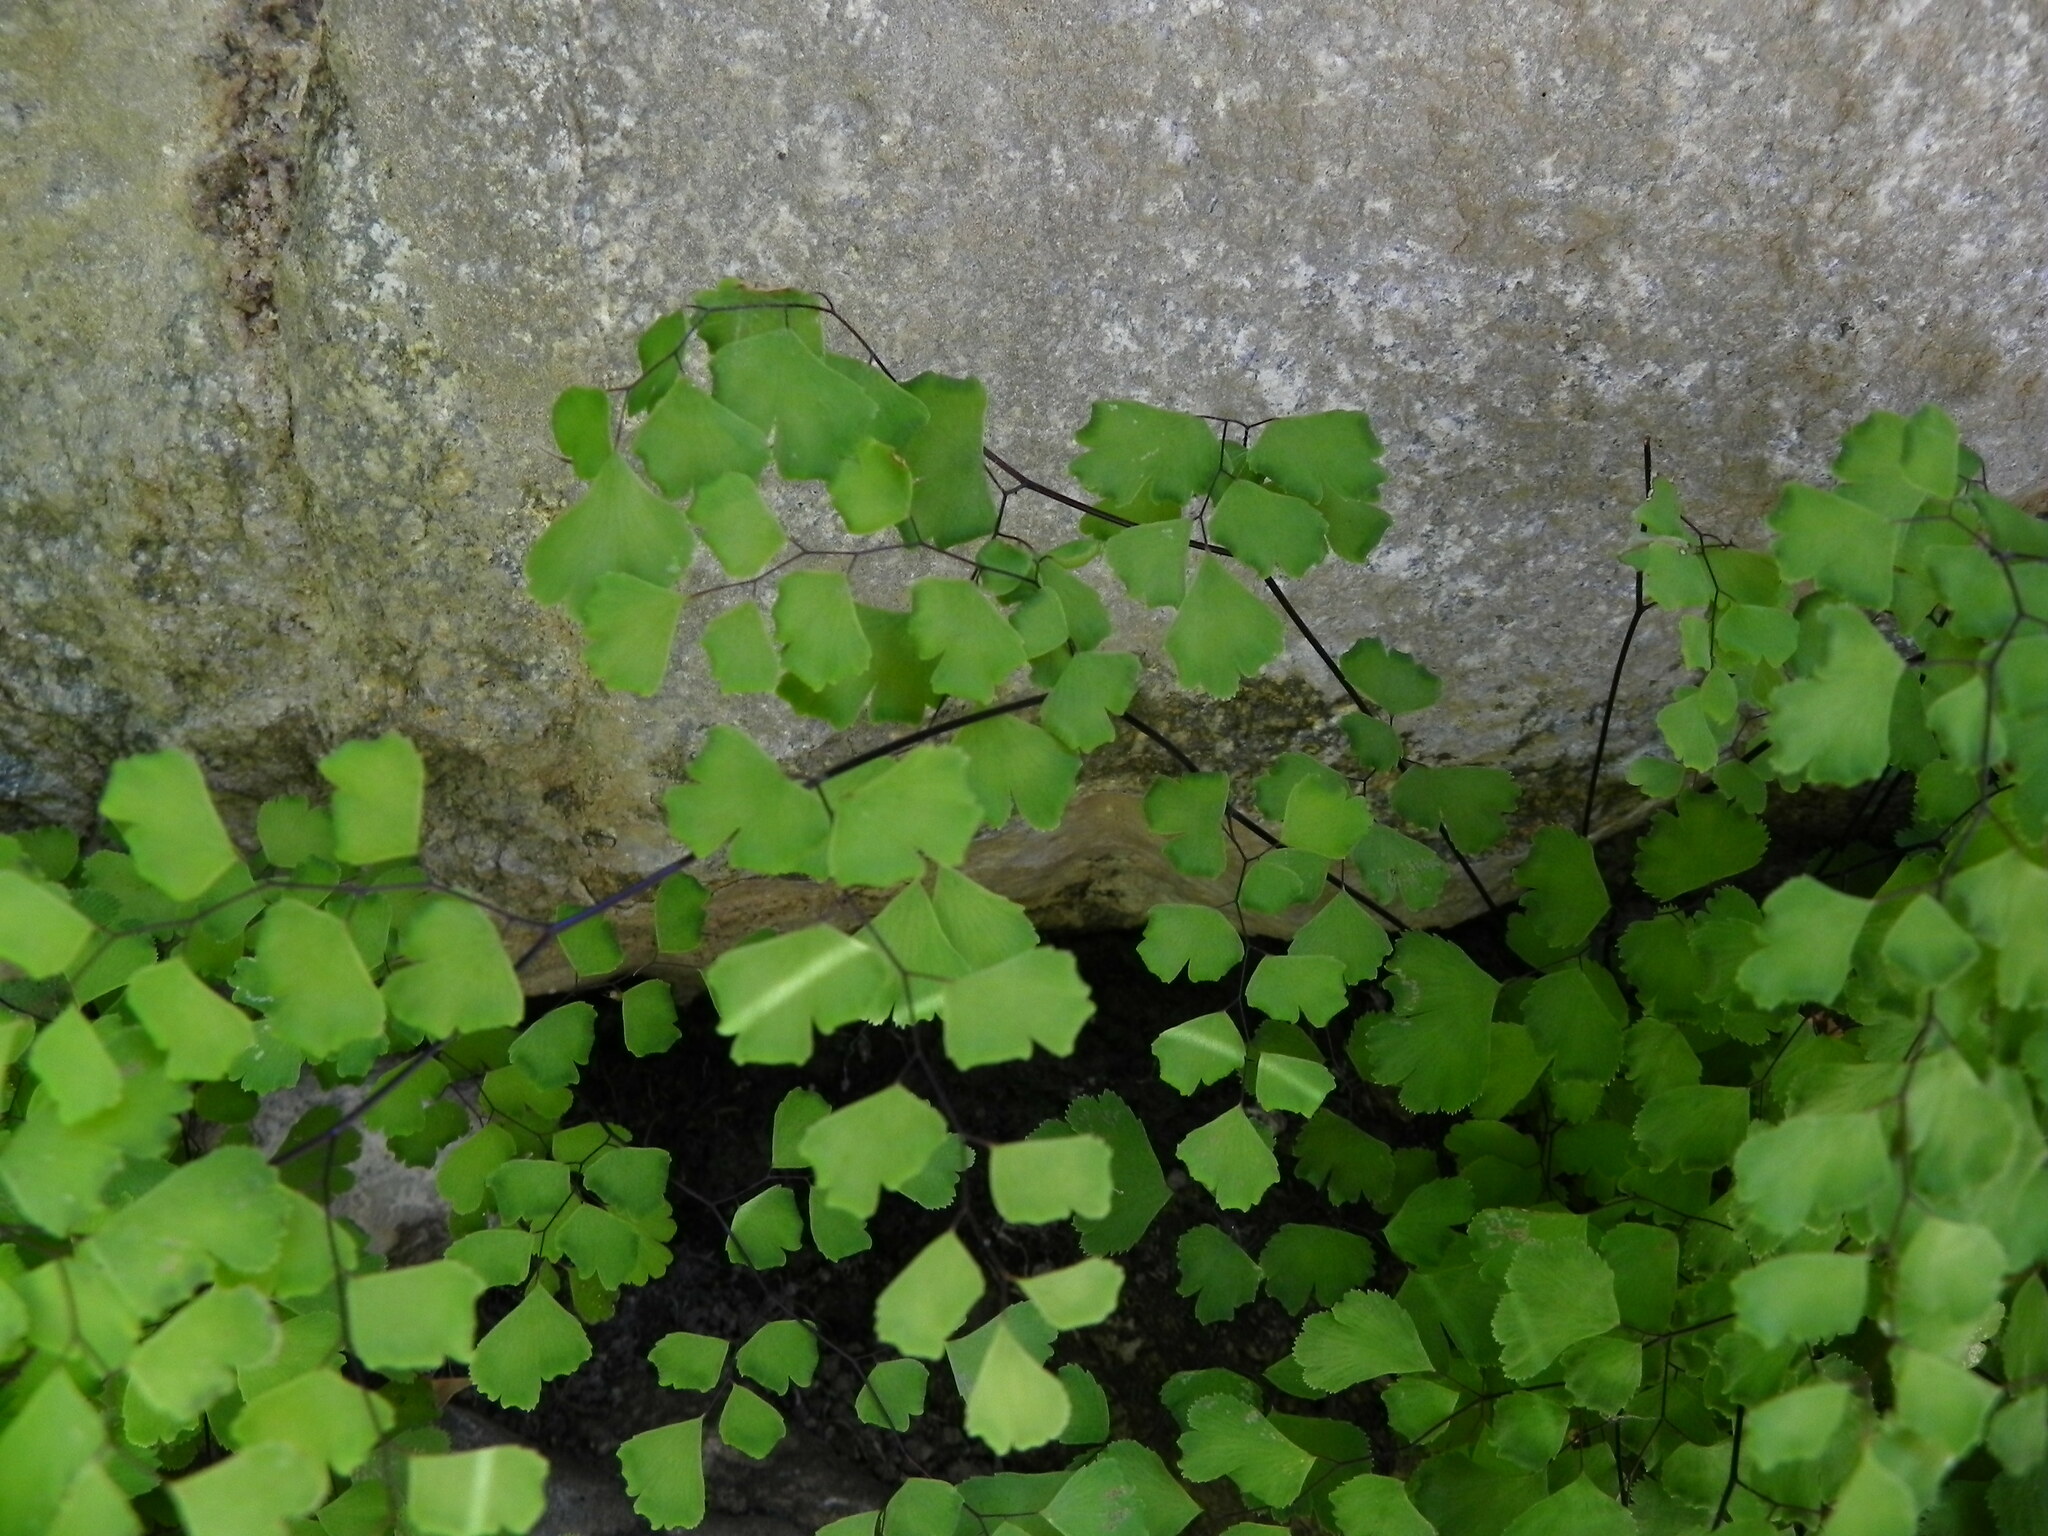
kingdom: Plantae
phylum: Tracheophyta
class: Polypodiopsida
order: Polypodiales
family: Pteridaceae
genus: Adiantum
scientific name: Adiantum capillus-veneris
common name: Maidenhair fern
